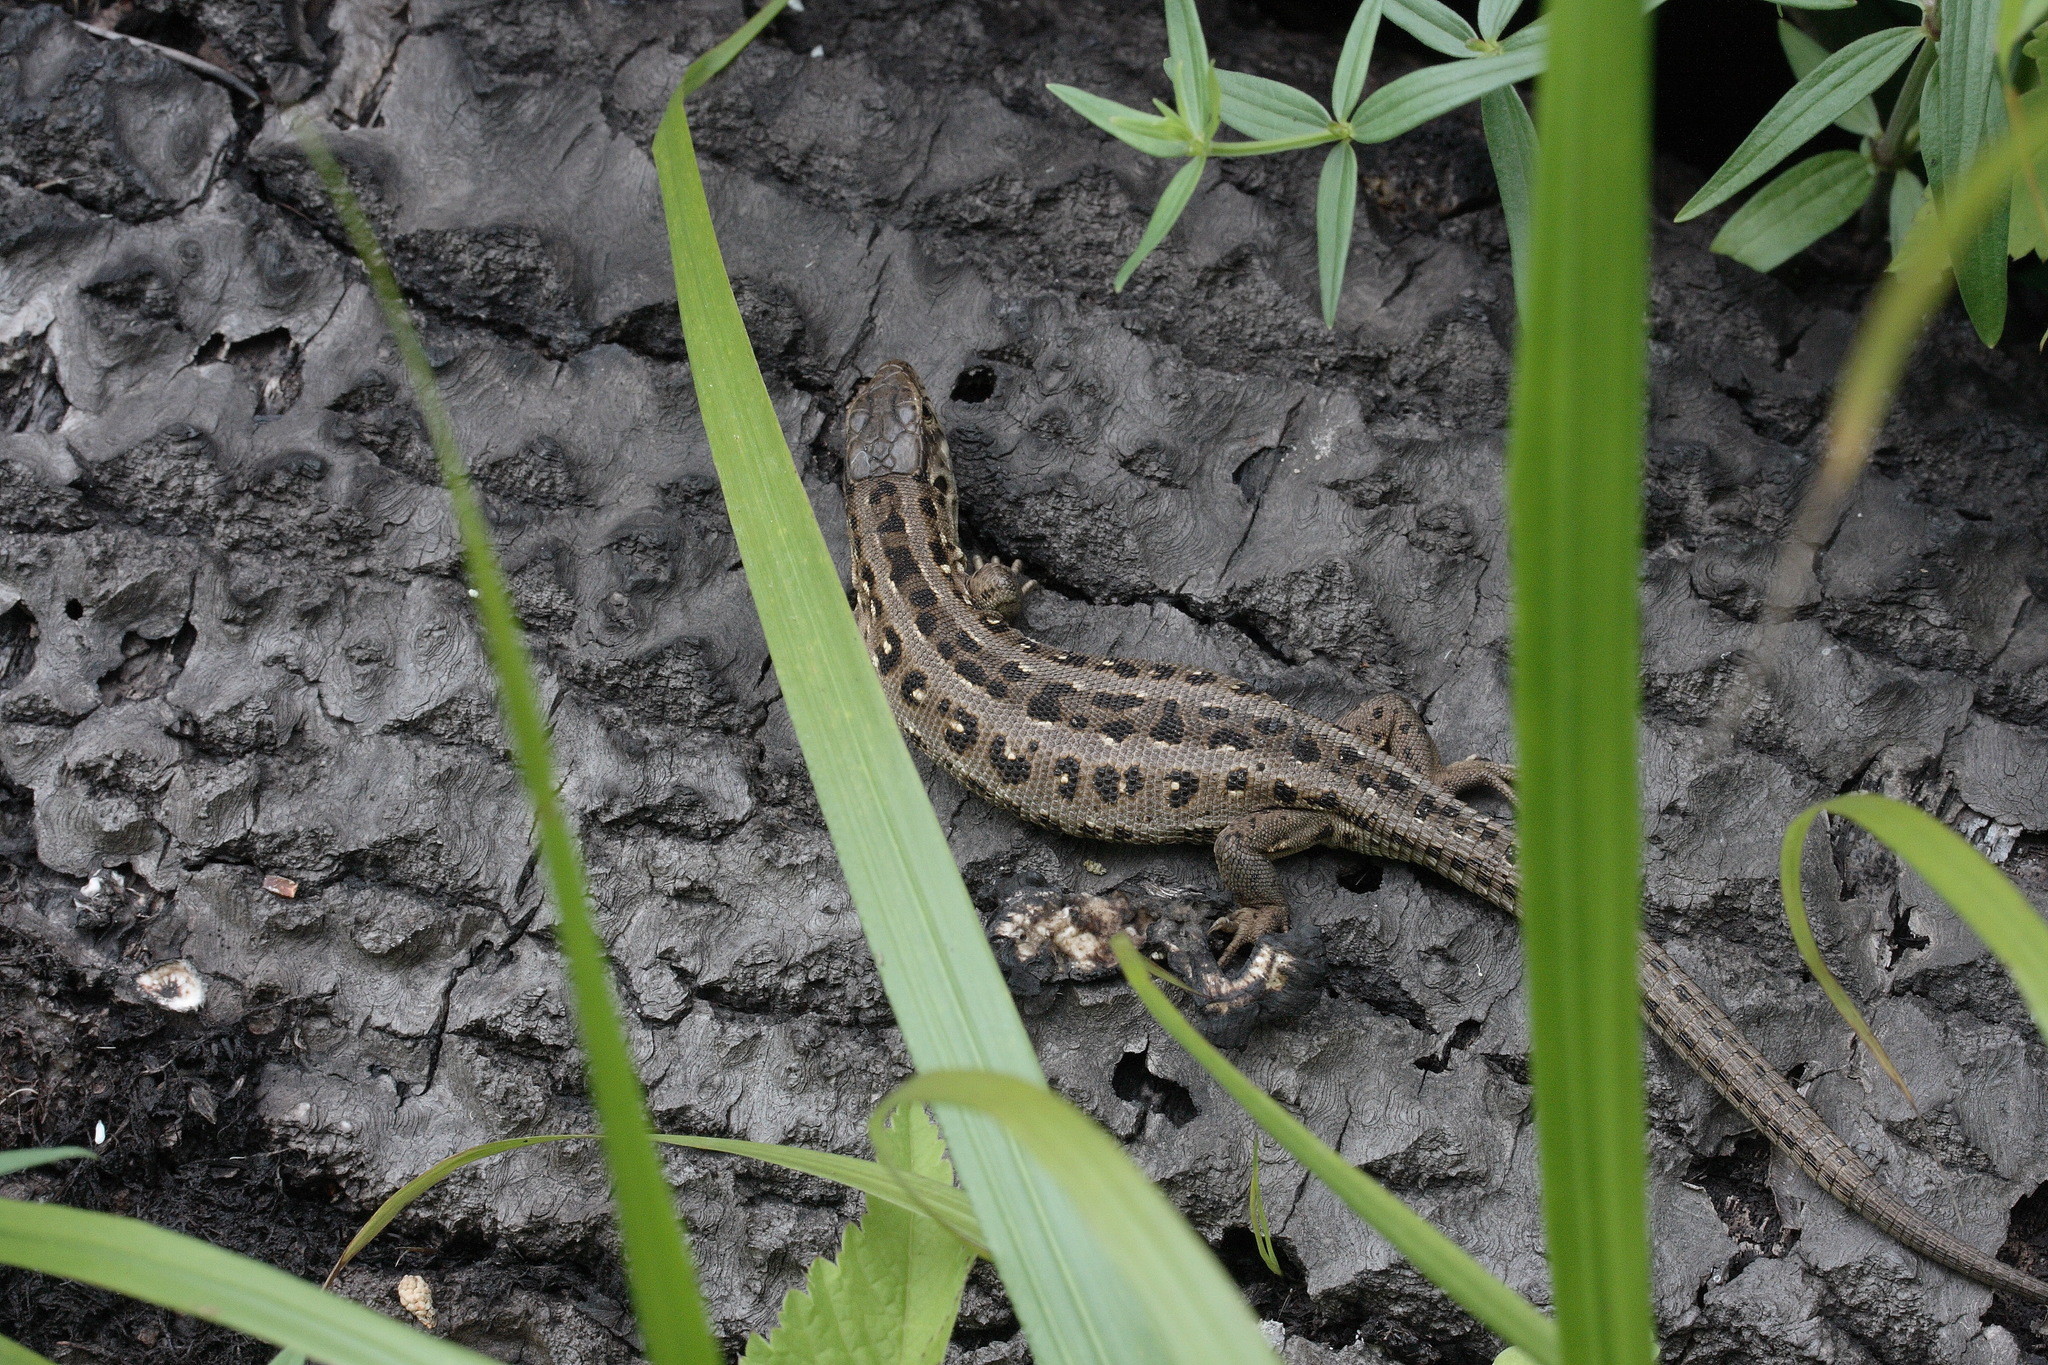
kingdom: Animalia
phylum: Chordata
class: Squamata
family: Lacertidae
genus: Lacerta
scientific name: Lacerta agilis
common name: Sand lizard
